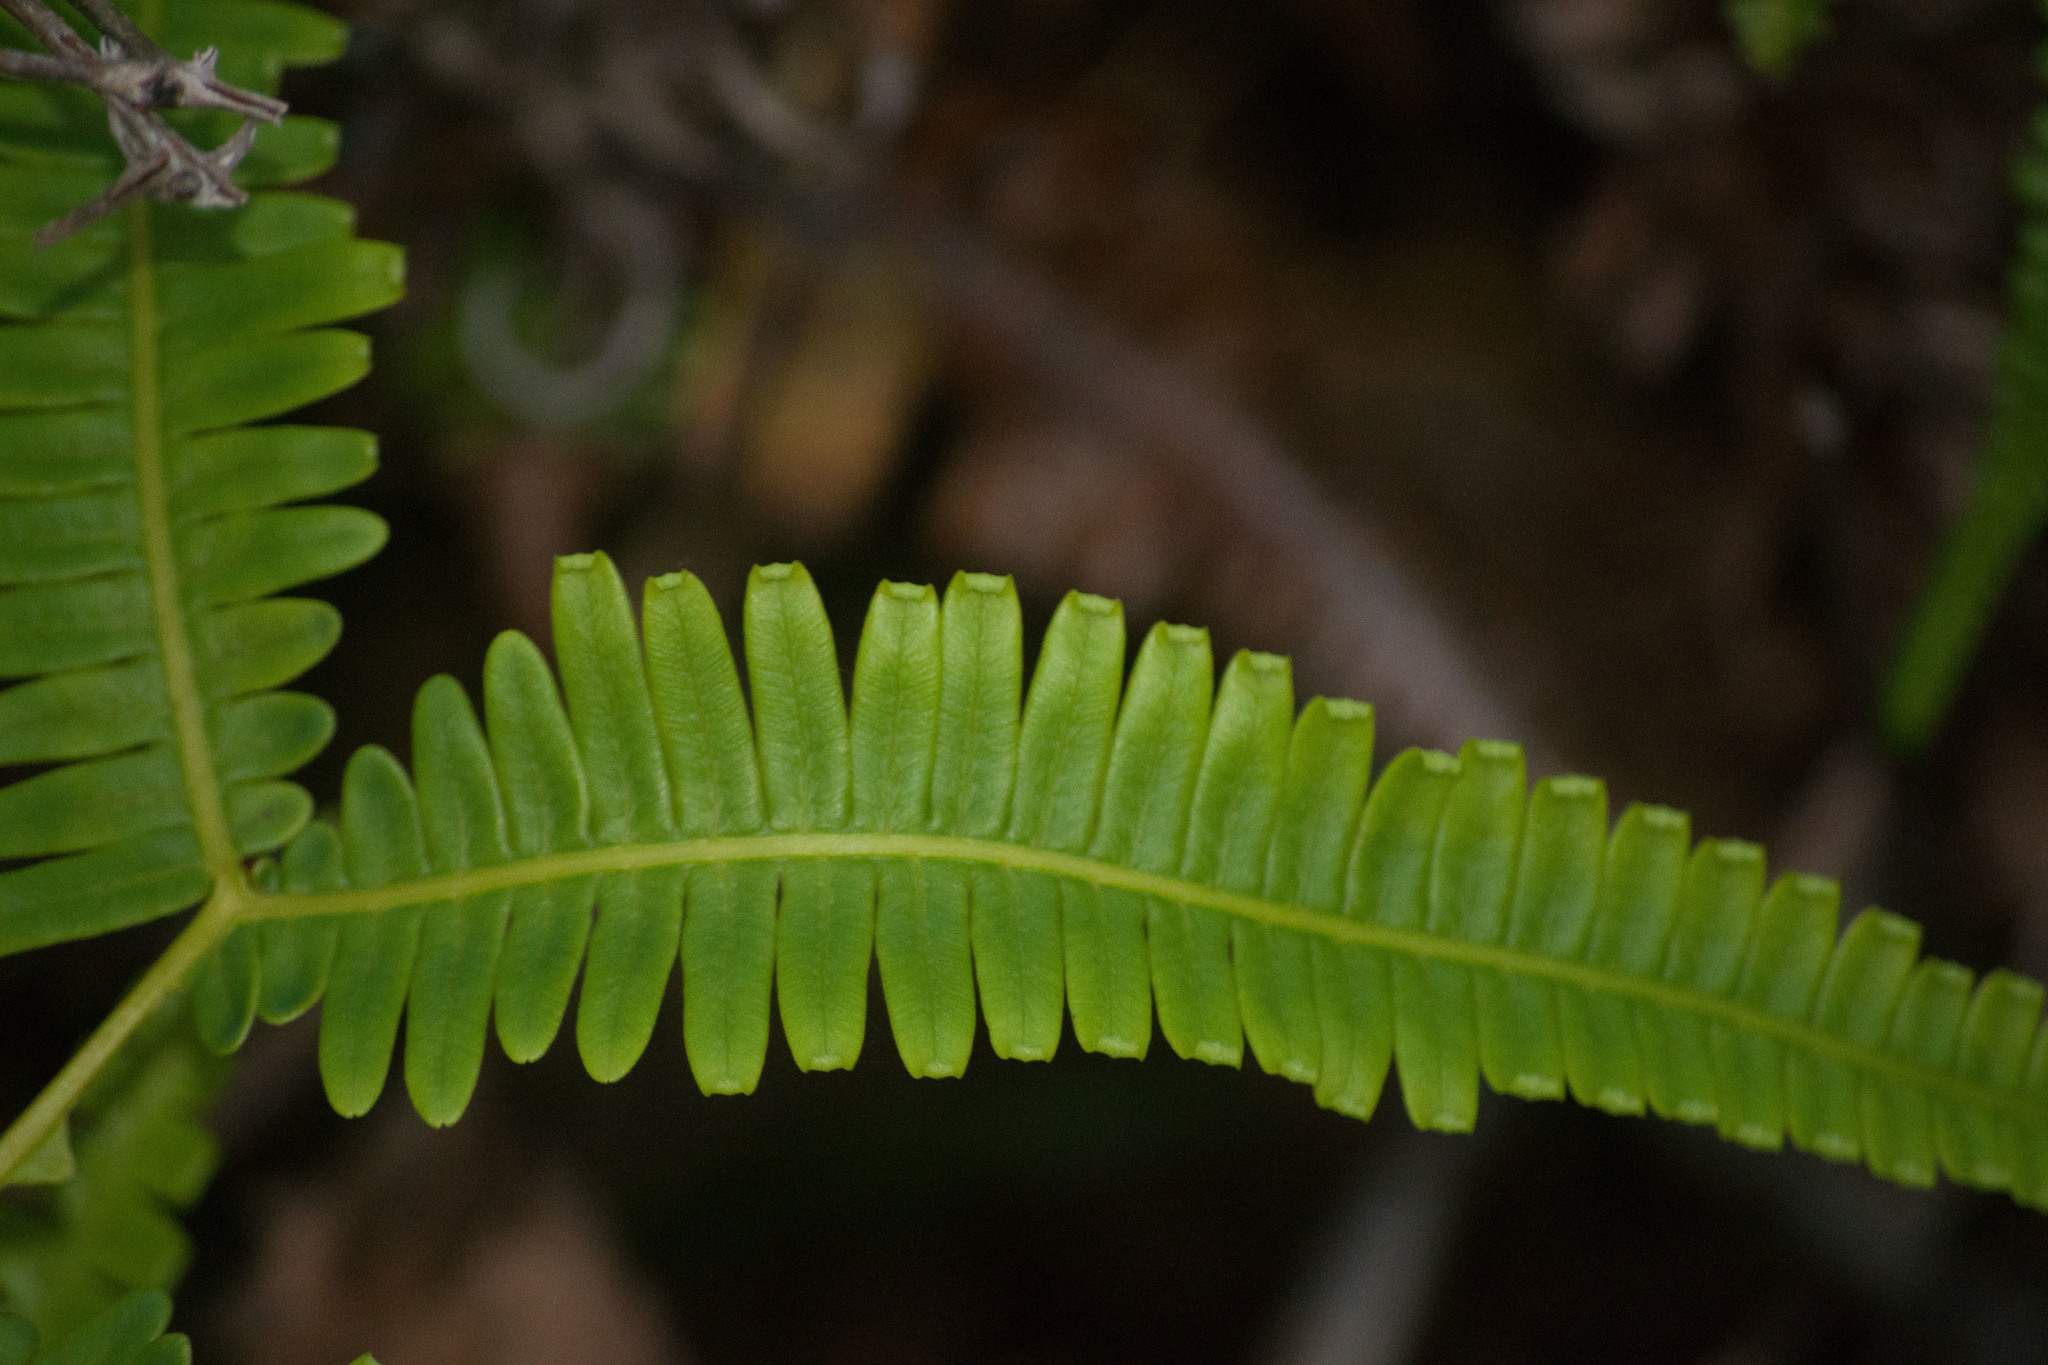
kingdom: Plantae
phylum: Tracheophyta
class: Polypodiopsida
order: Gleicheniales
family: Gleicheniaceae
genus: Dicranopteris
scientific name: Dicranopteris linearis
